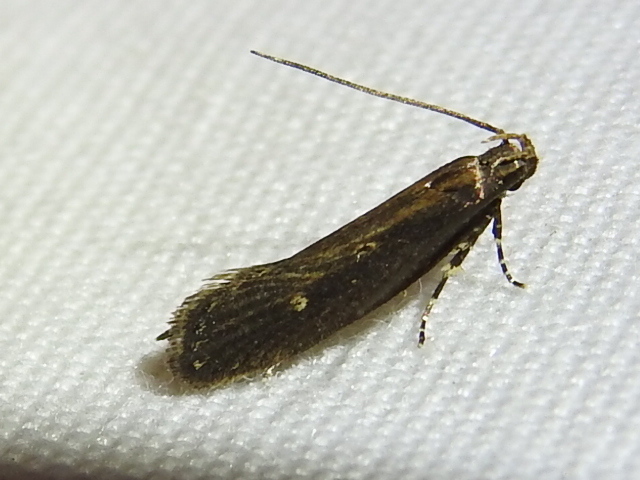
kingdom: Animalia
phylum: Arthropoda
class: Insecta
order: Lepidoptera
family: Gelechiidae
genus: Chionodes
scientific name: Chionodes discoocellella
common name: Eye-ringed chionodes moth
